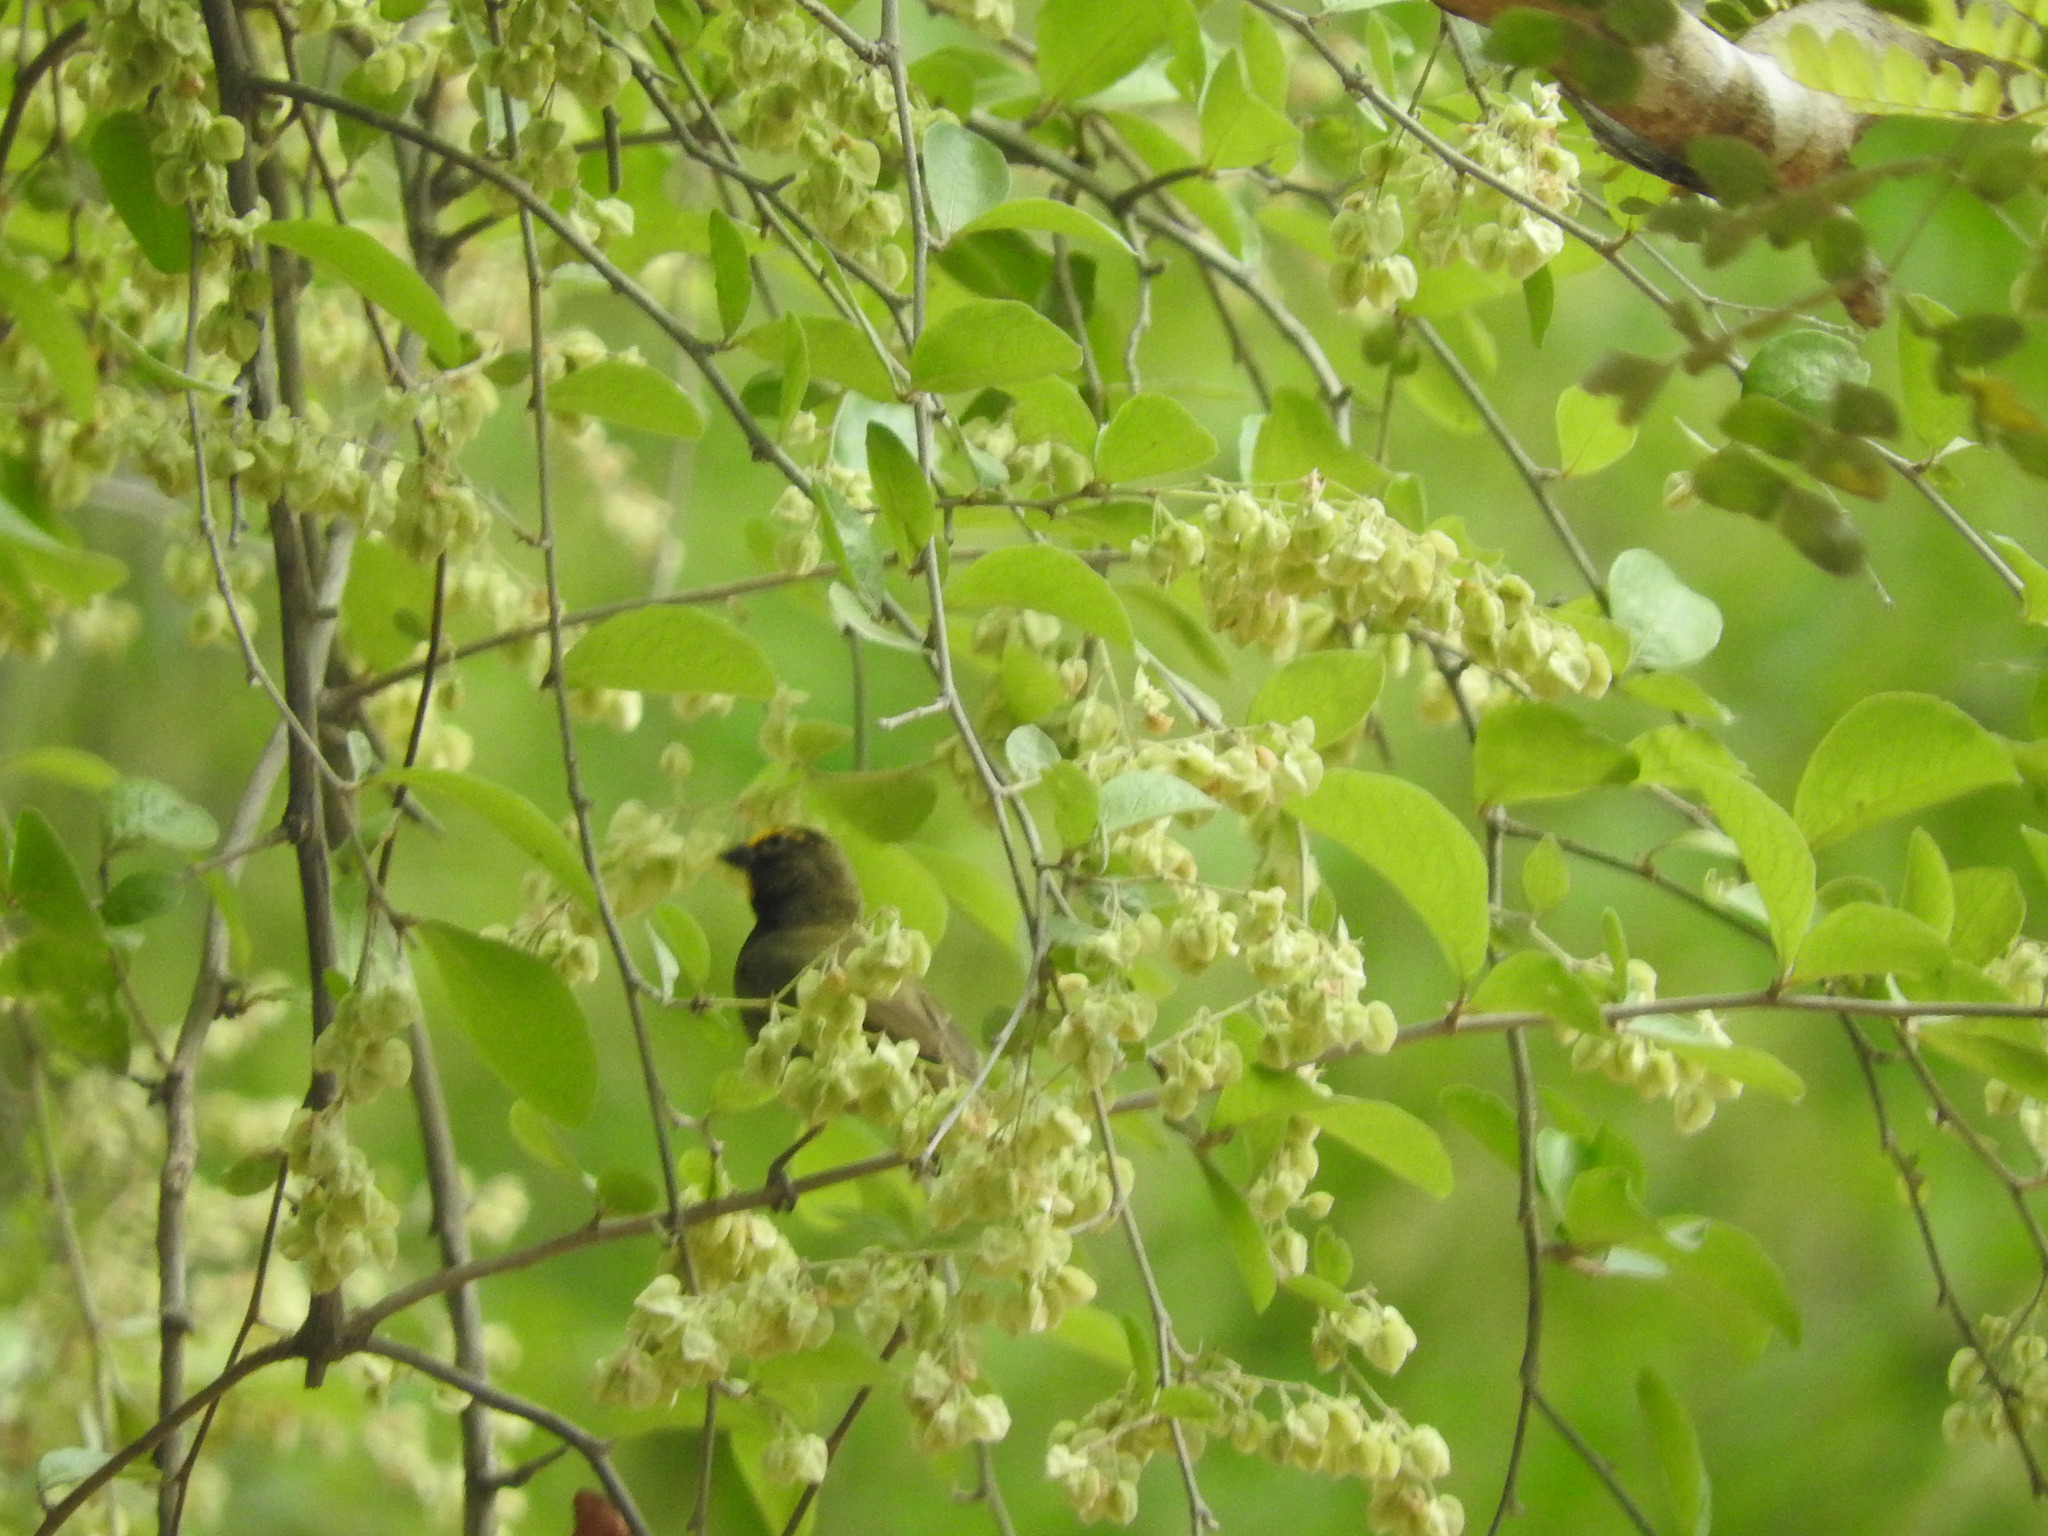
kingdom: Animalia
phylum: Chordata
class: Aves
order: Passeriformes
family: Thraupidae
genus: Tiaris
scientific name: Tiaris olivaceus
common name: Yellow-faced grassquit
